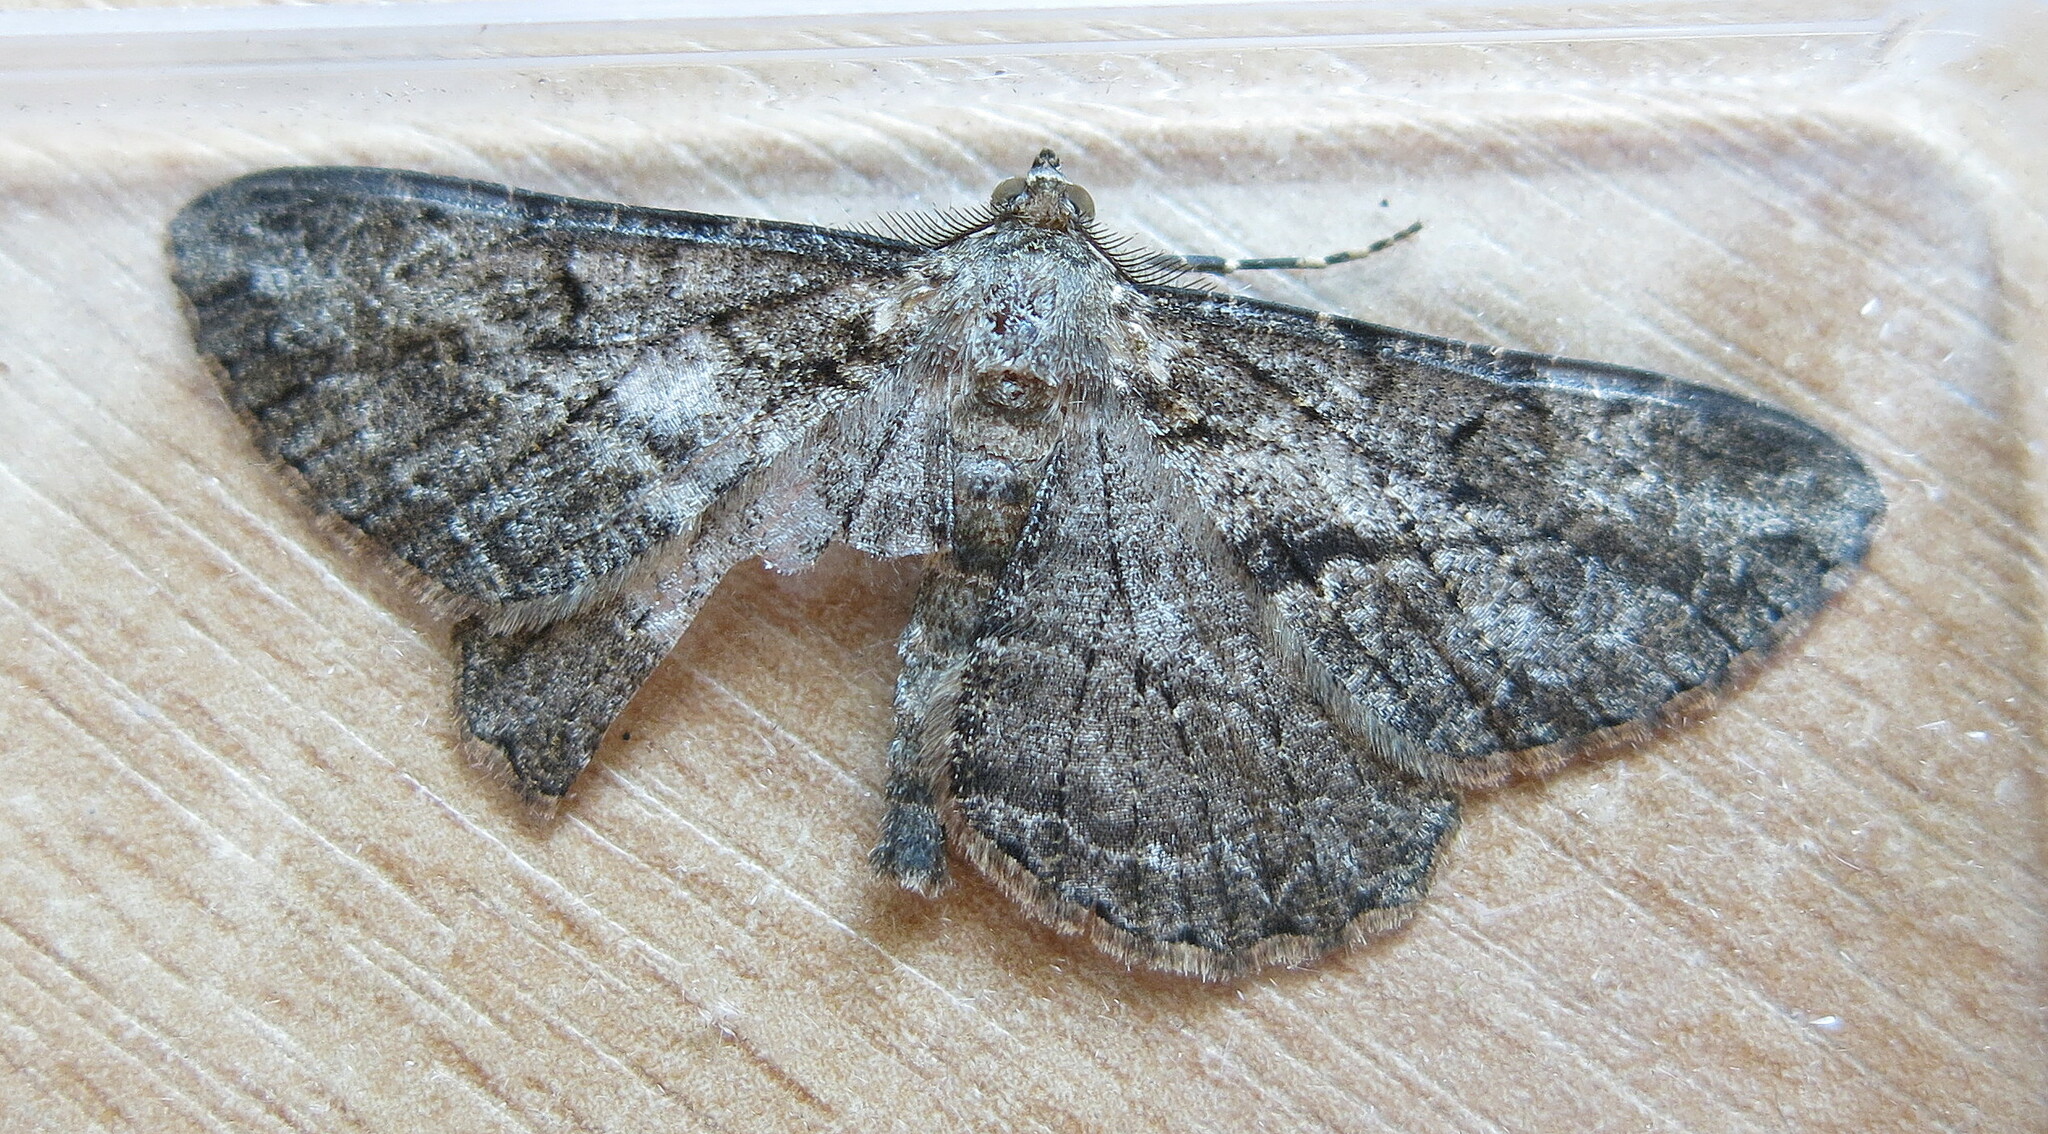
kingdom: Animalia
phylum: Arthropoda
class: Insecta
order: Lepidoptera
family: Geometridae
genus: Peribatodes
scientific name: Peribatodes rhomboidaria
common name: Willow beauty
